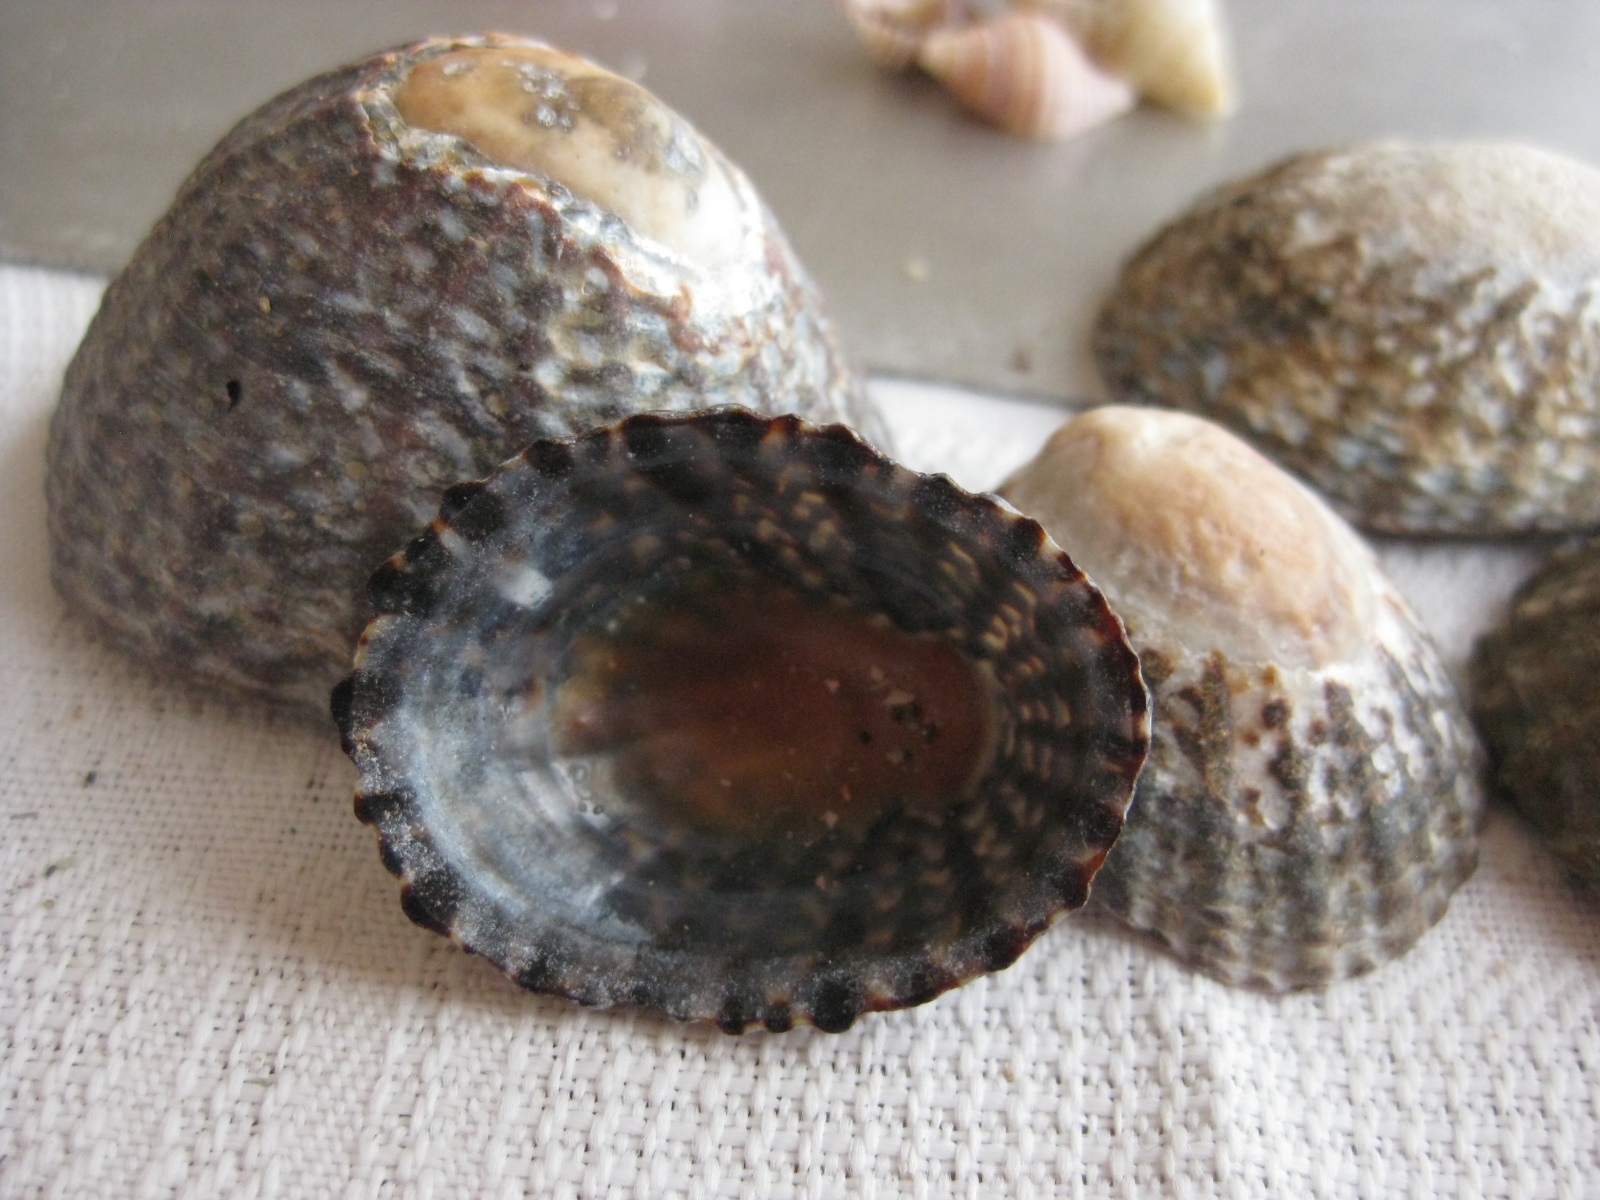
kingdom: Animalia
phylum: Mollusca
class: Gastropoda
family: Nacellidae
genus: Cellana
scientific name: Cellana denticulata
